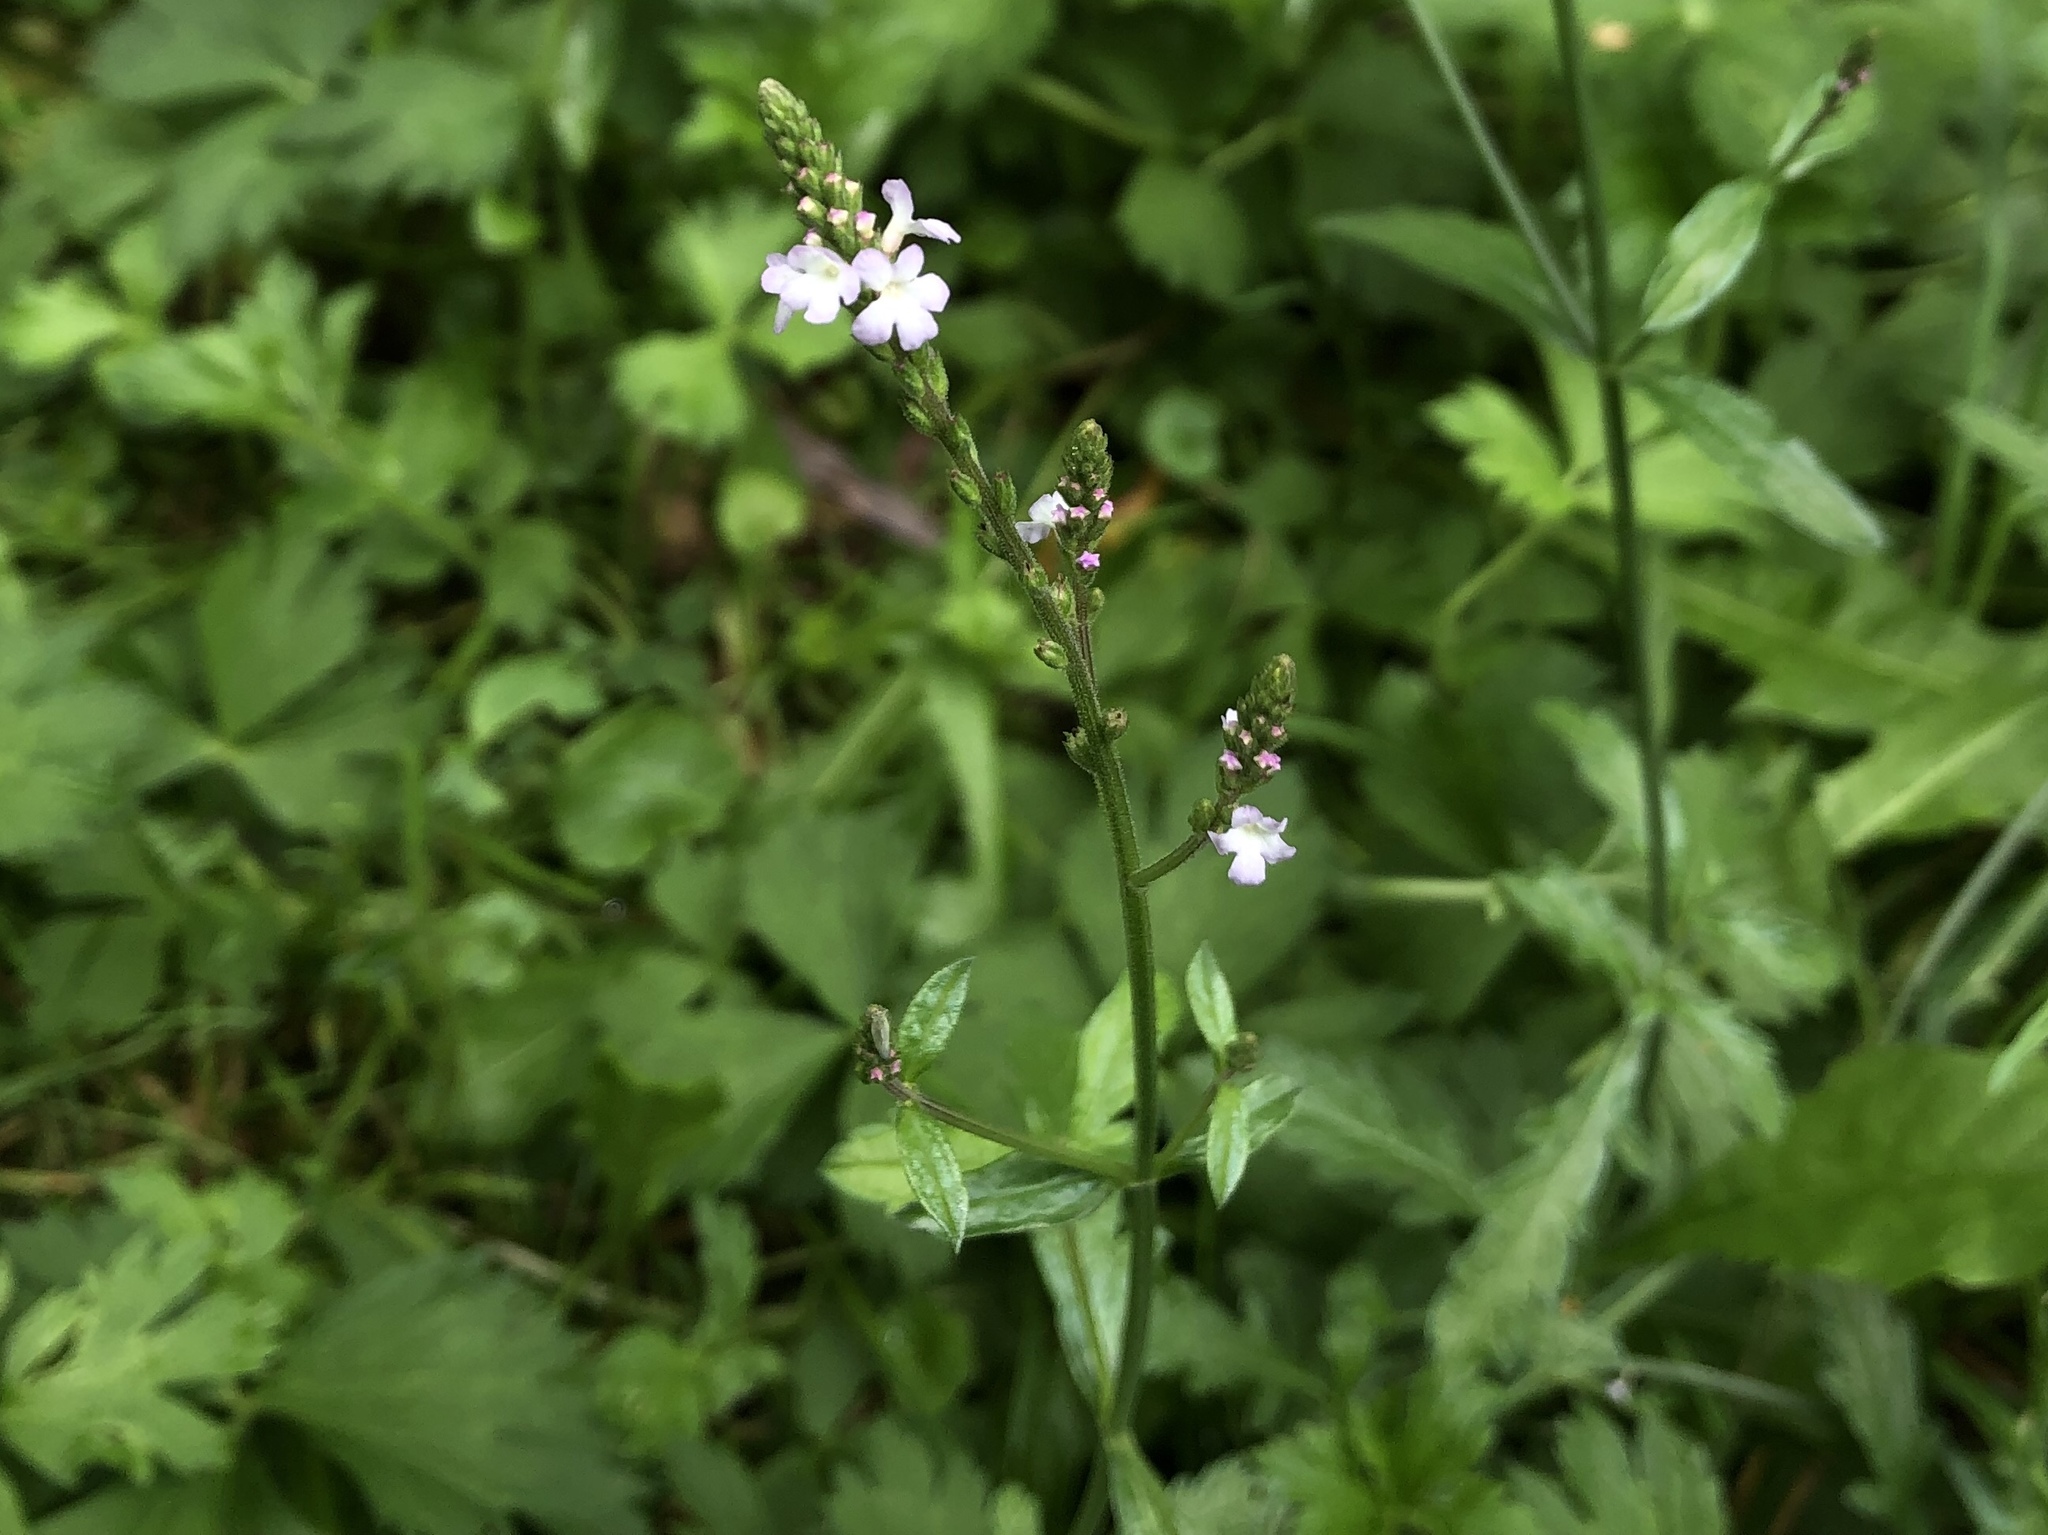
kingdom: Plantae
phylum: Tracheophyta
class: Magnoliopsida
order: Lamiales
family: Verbenaceae
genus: Verbena
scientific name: Verbena officinalis
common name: Vervain
